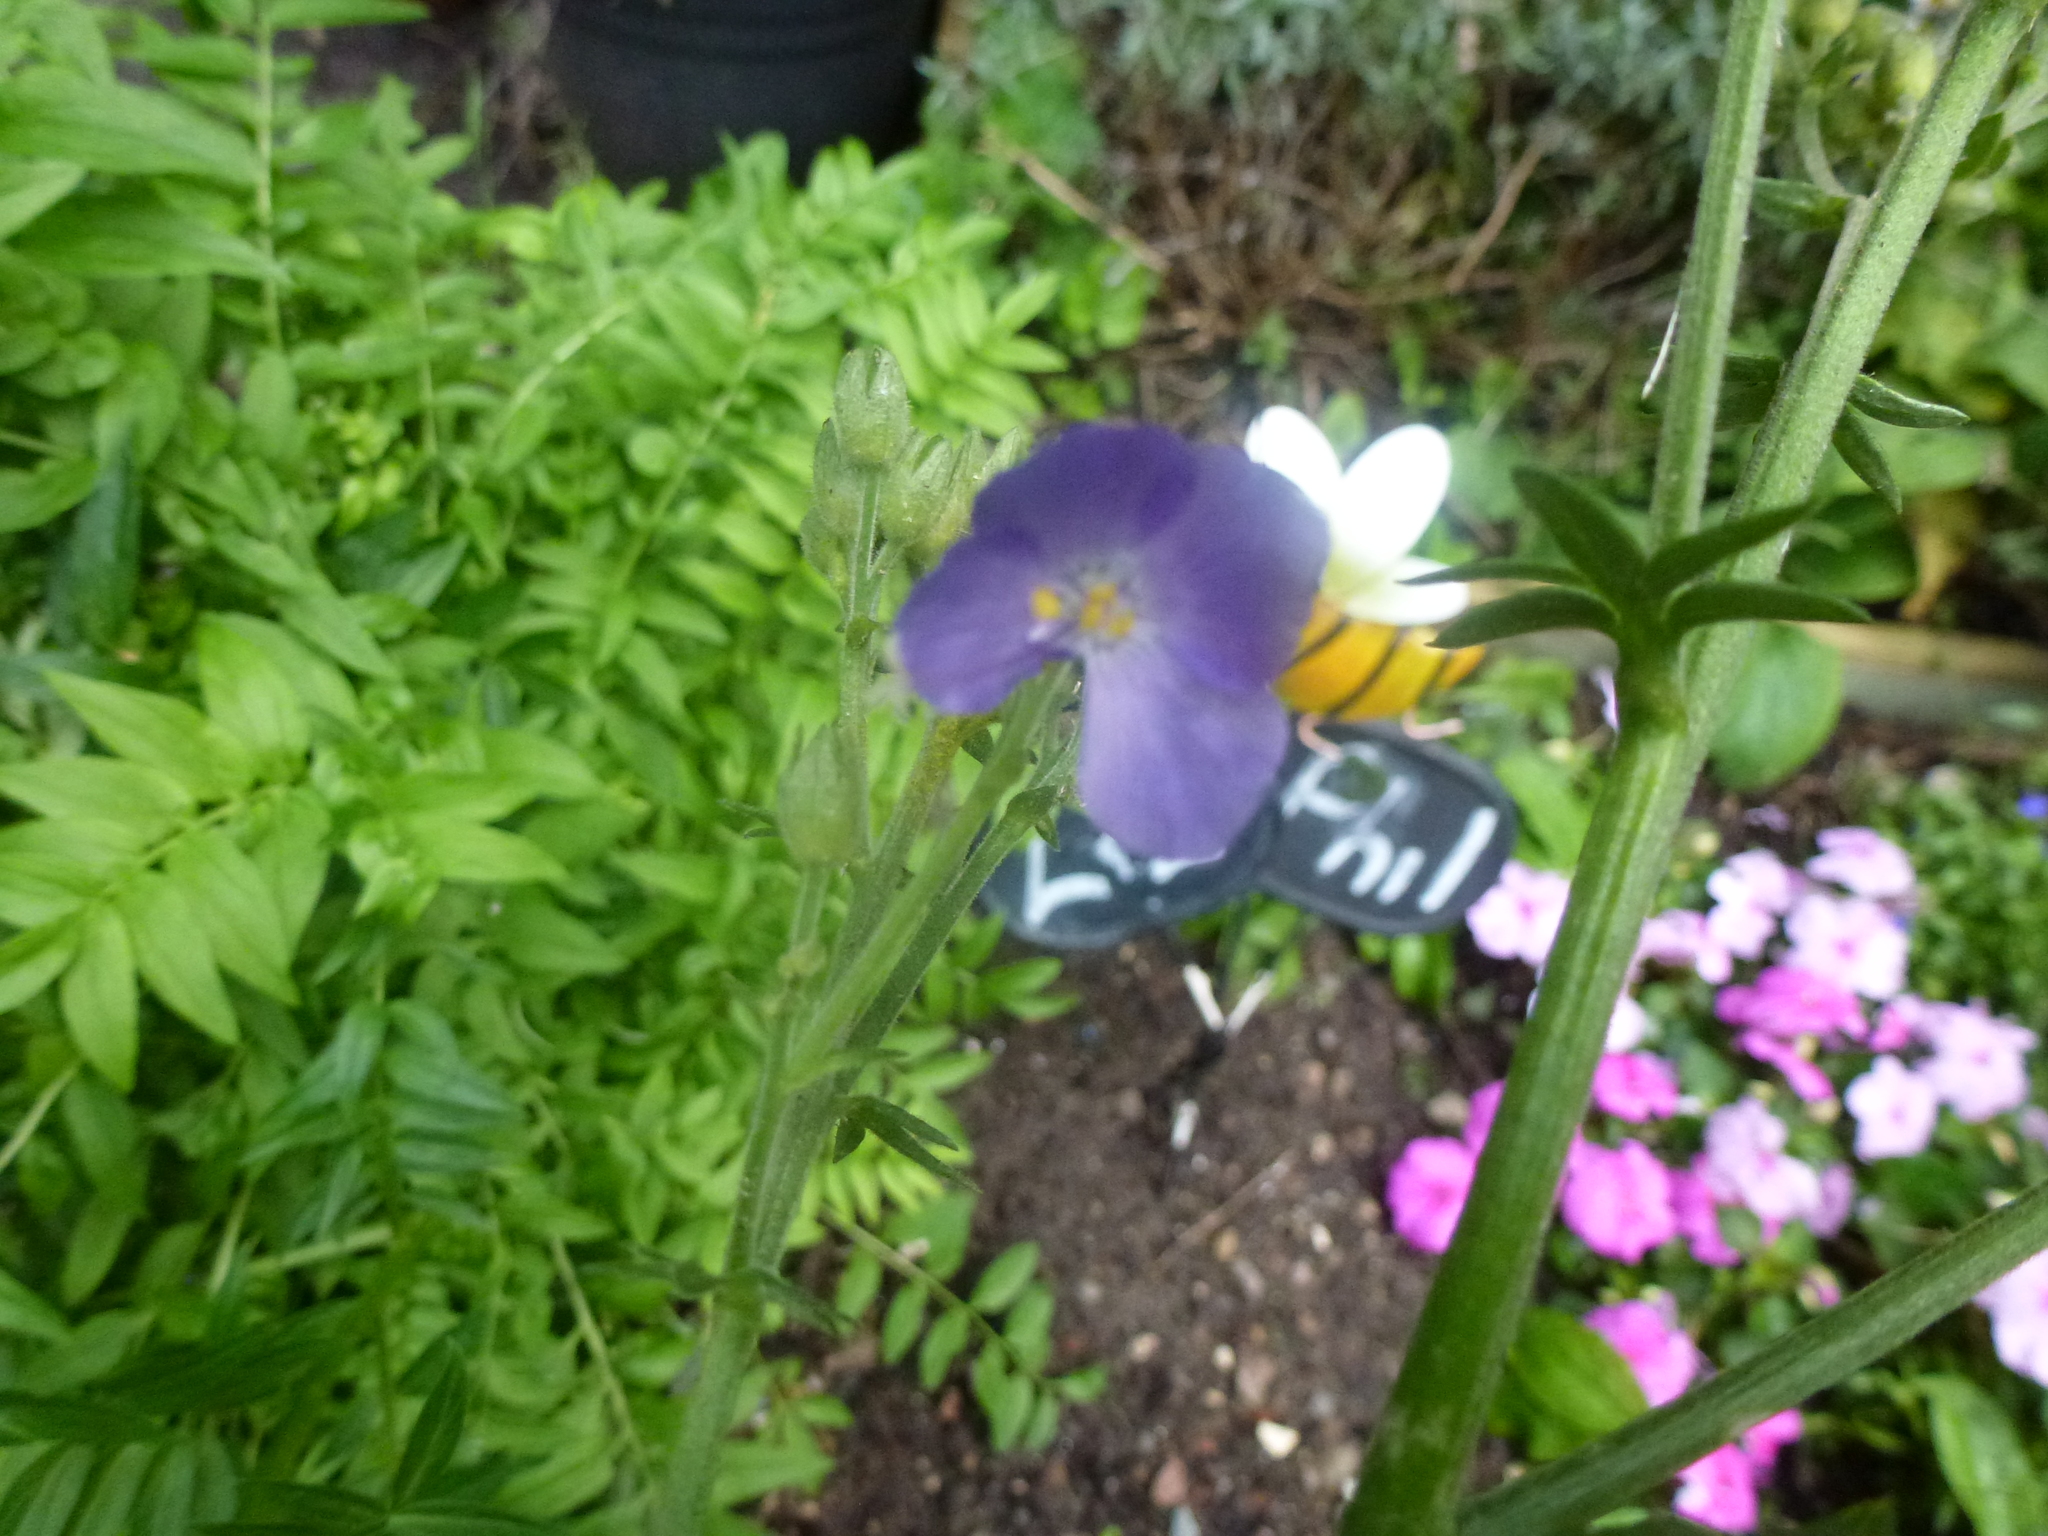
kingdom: Plantae
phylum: Tracheophyta
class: Magnoliopsida
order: Ericales
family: Polemoniaceae
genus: Polemonium
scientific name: Polemonium caeruleum
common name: Jacob's-ladder
